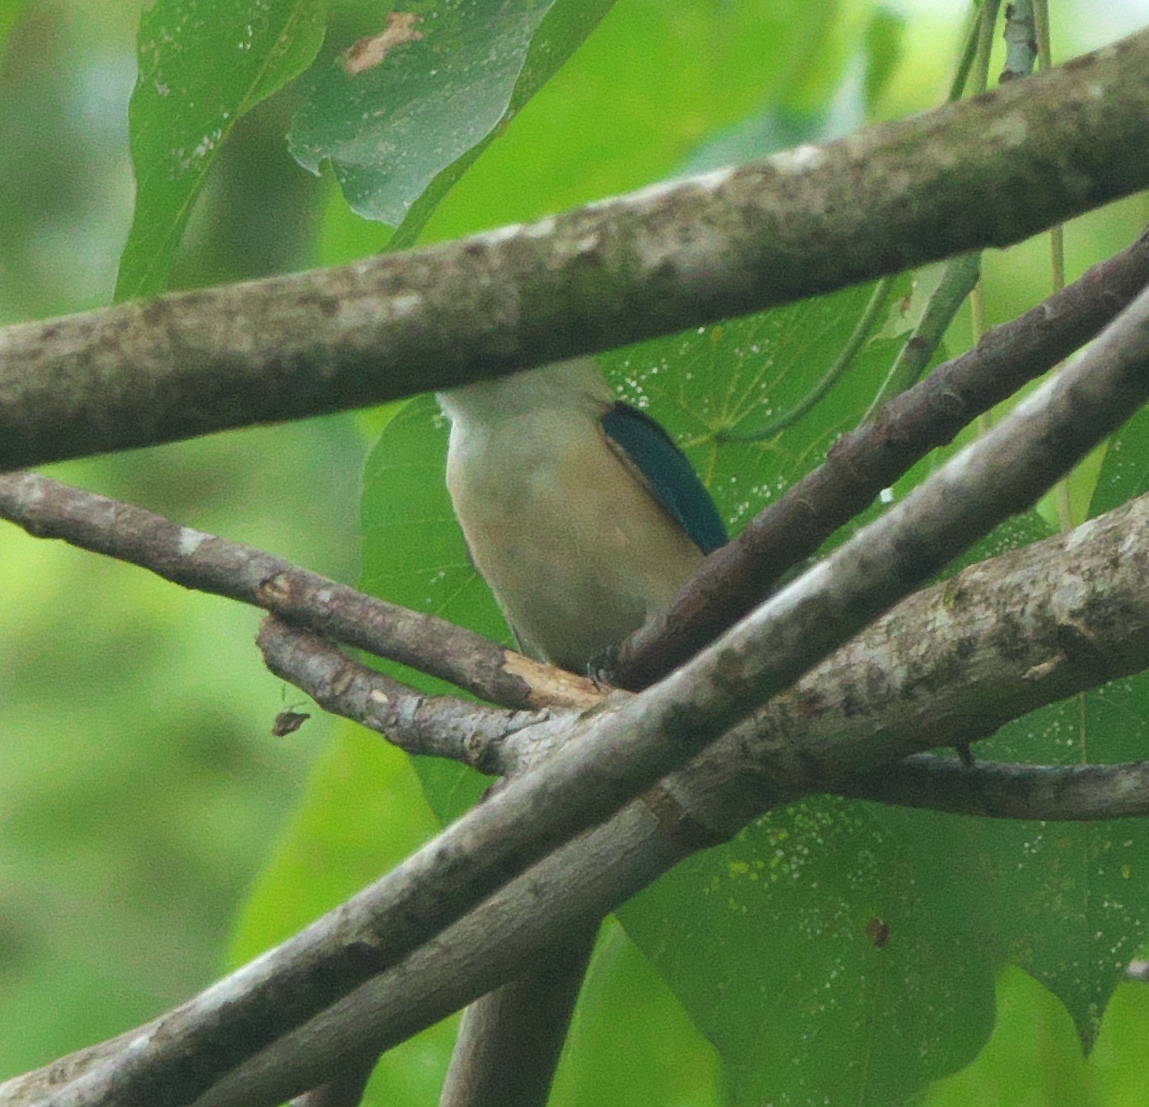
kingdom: Animalia
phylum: Chordata
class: Aves
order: Coraciiformes
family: Alcedinidae
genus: Todiramphus
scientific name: Todiramphus recurvirostris
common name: Flat-billed kingfisher
